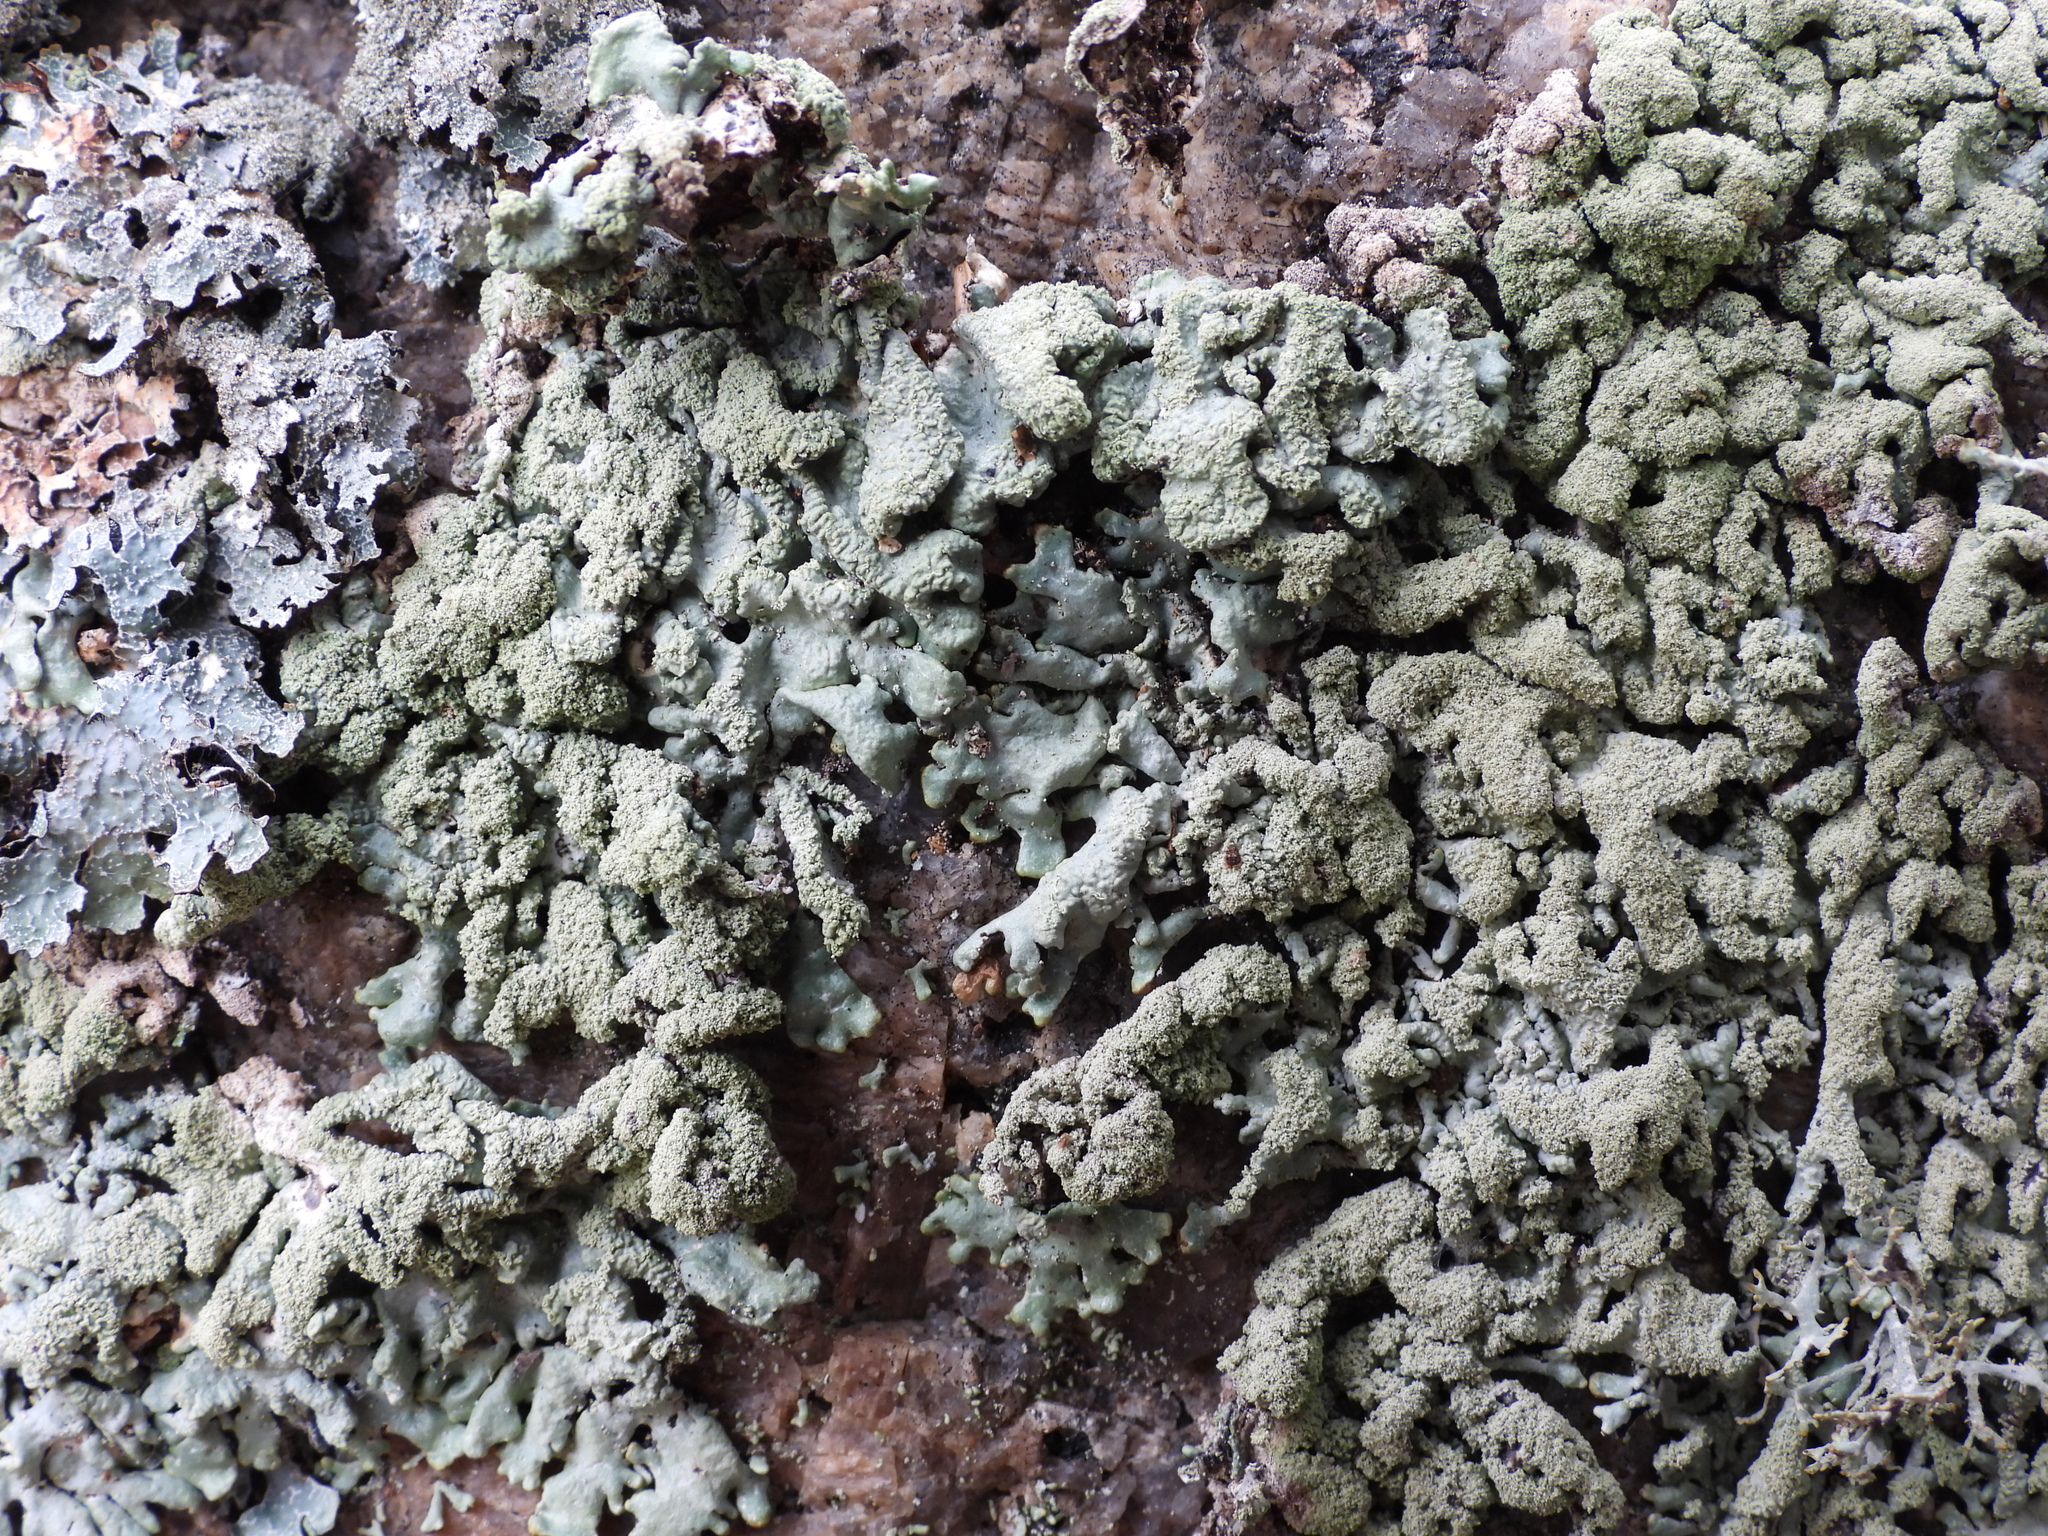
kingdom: Fungi
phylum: Ascomycota
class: Lecanoromycetes
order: Lecanorales
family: Parmeliaceae
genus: Hypogymnia
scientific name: Hypogymnia farinacea
